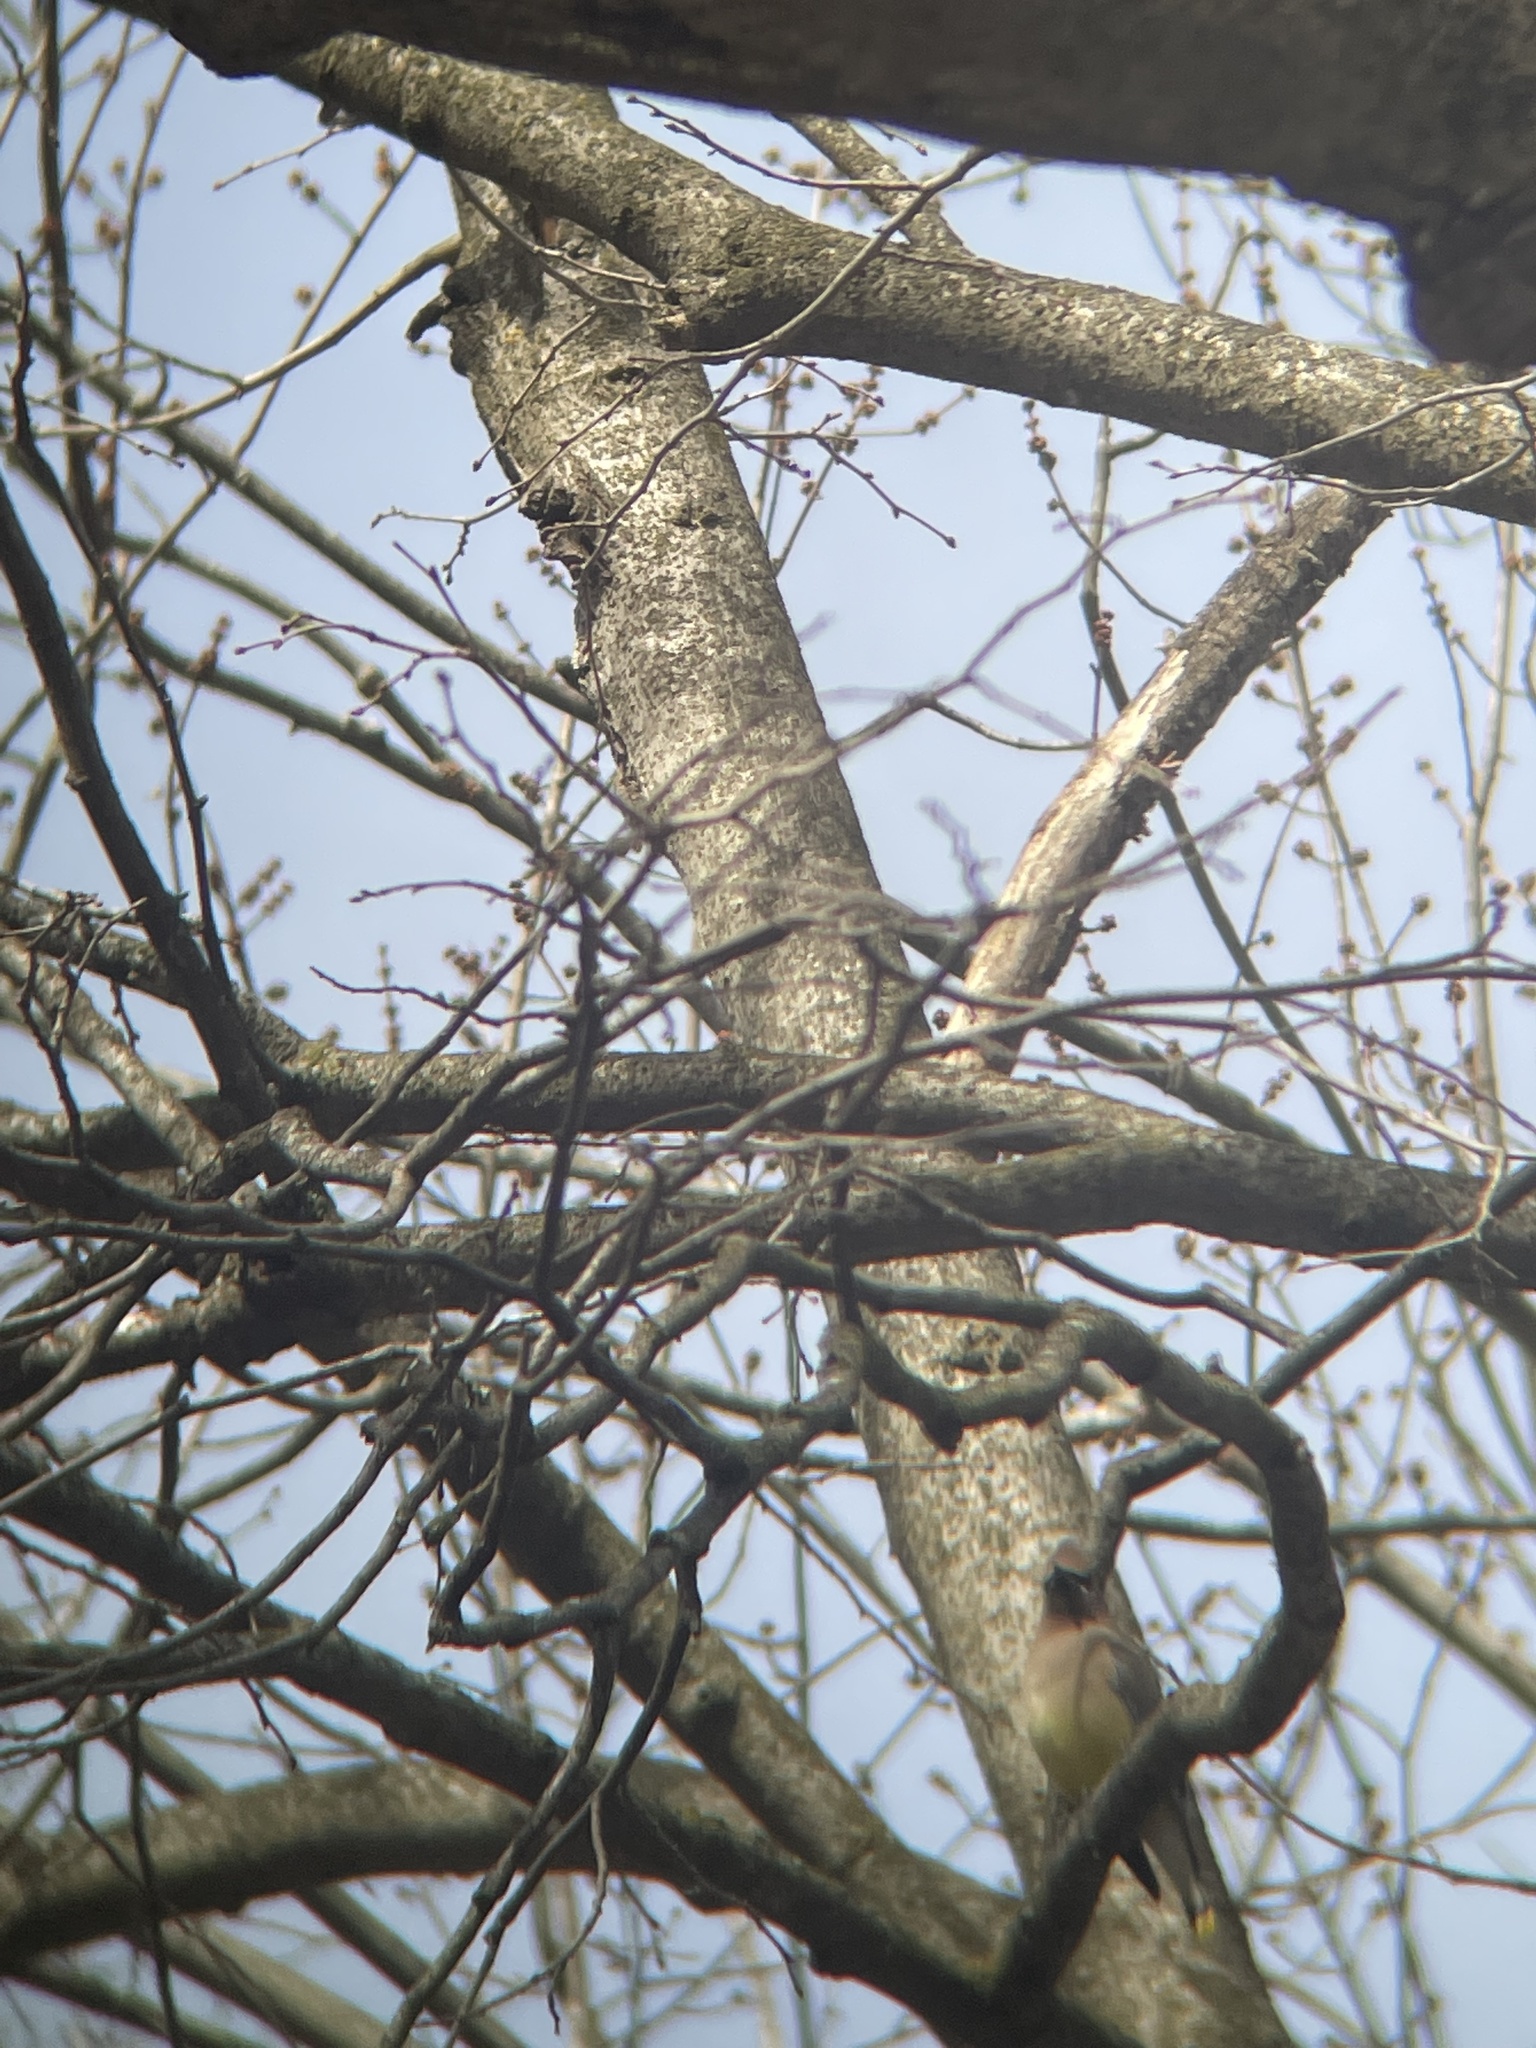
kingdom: Animalia
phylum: Chordata
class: Aves
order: Passeriformes
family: Bombycillidae
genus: Bombycilla
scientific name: Bombycilla cedrorum
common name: Cedar waxwing
